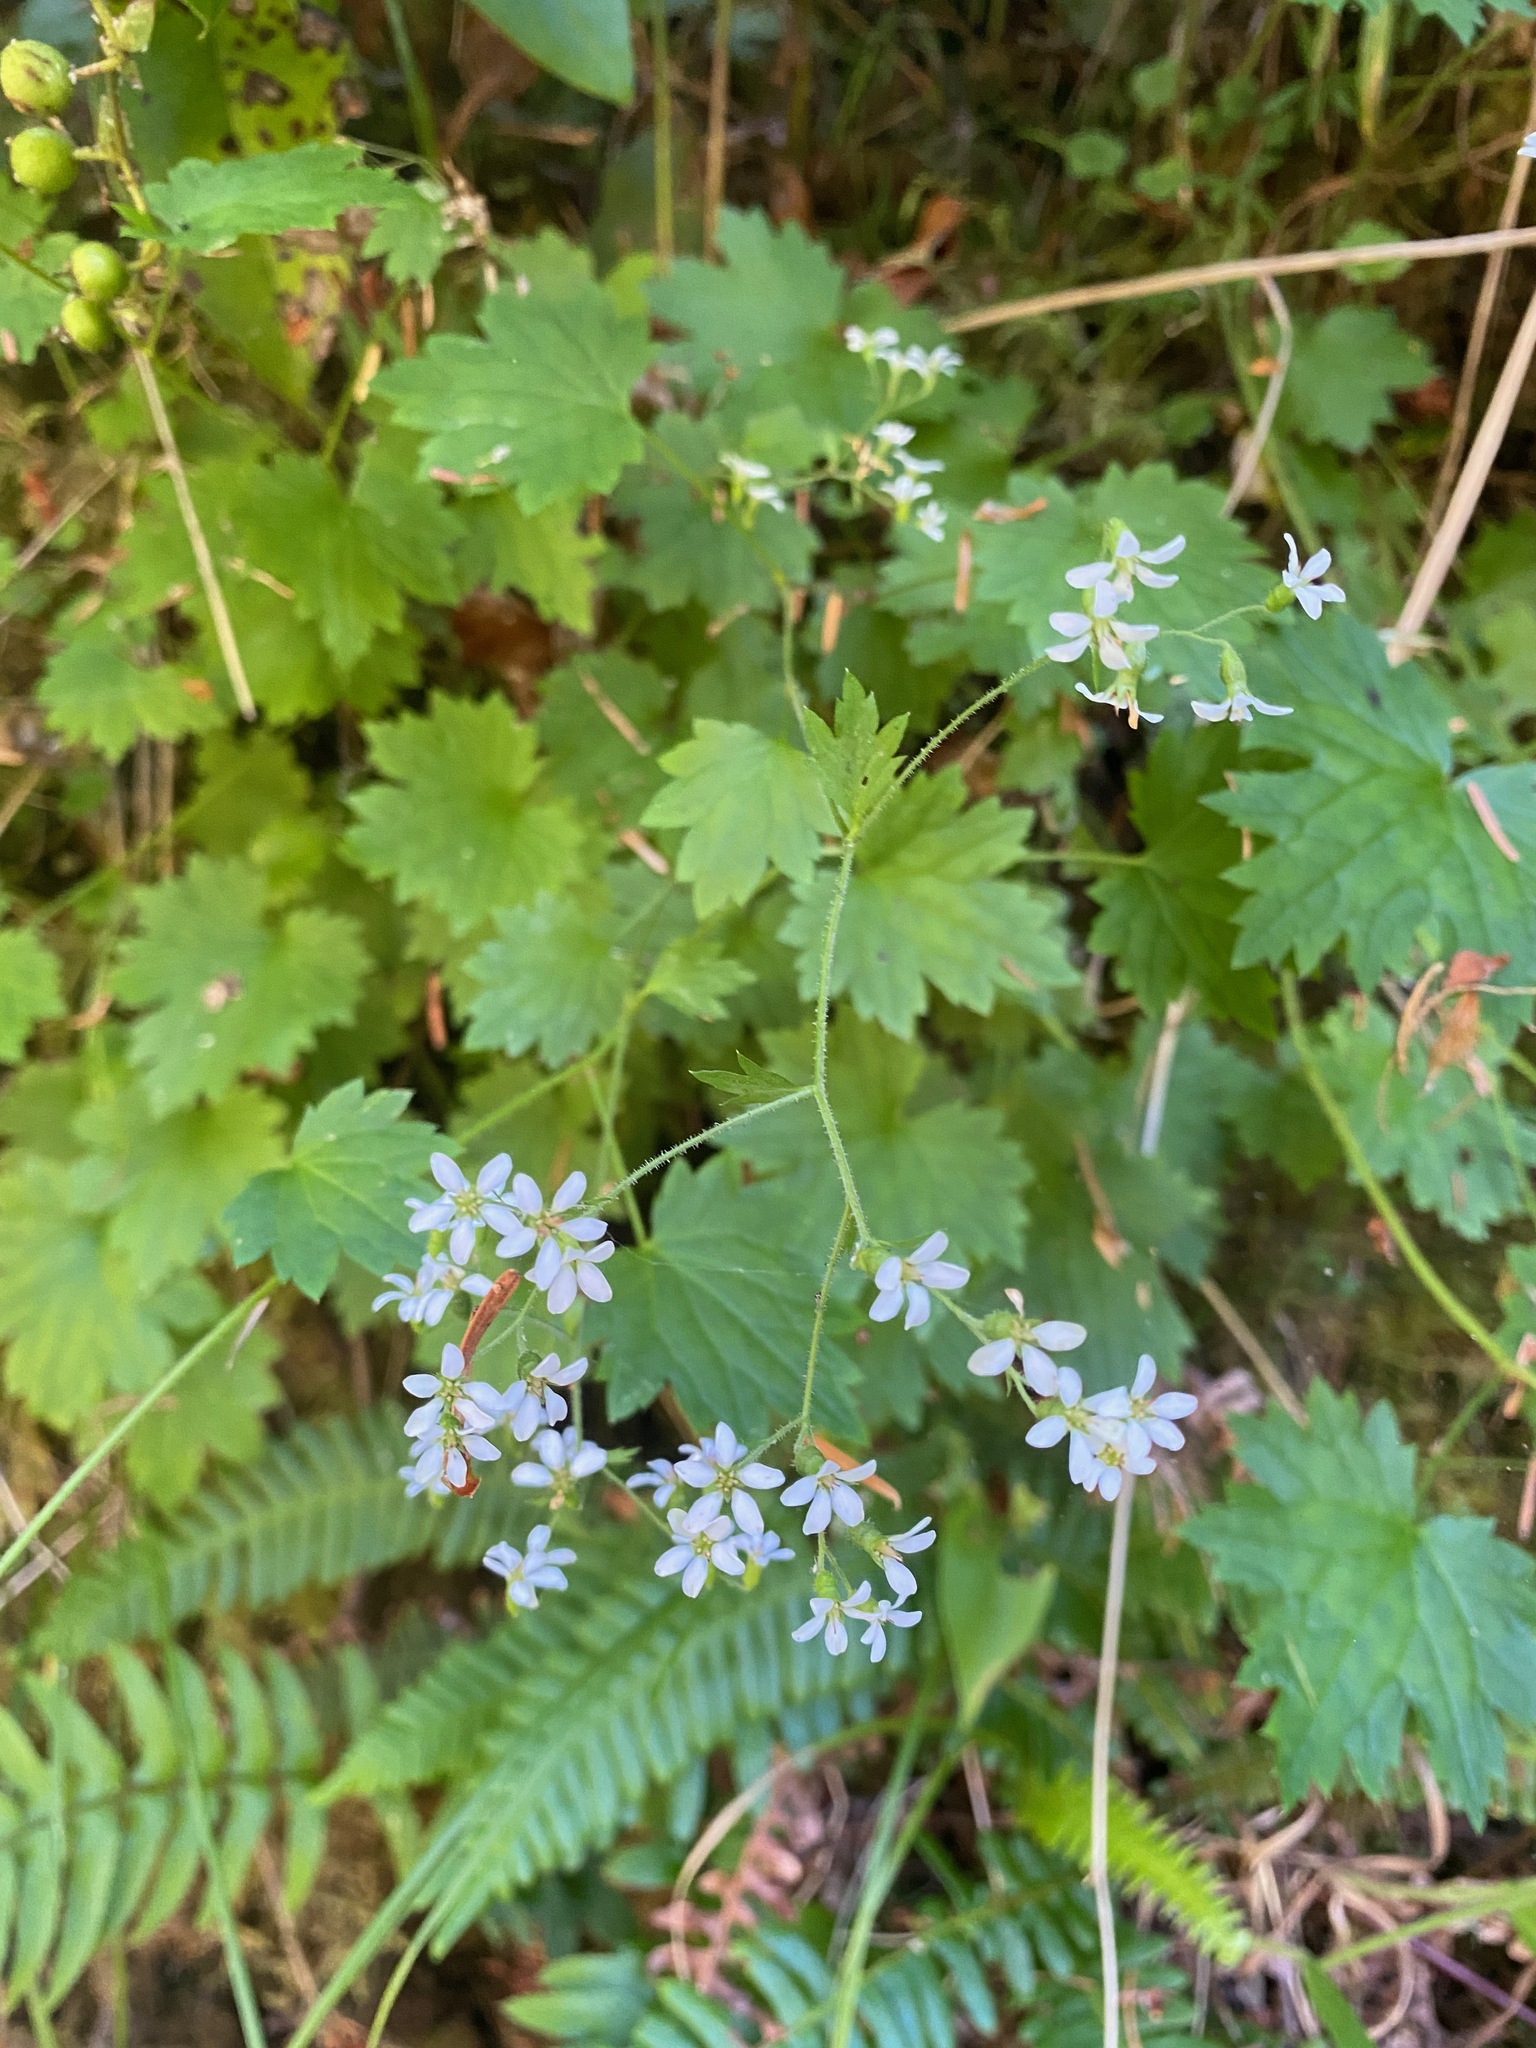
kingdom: Plantae
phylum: Tracheophyta
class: Magnoliopsida
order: Saxifragales
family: Saxifragaceae
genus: Boykinia
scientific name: Boykinia occidentalis
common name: Coast boykinia
